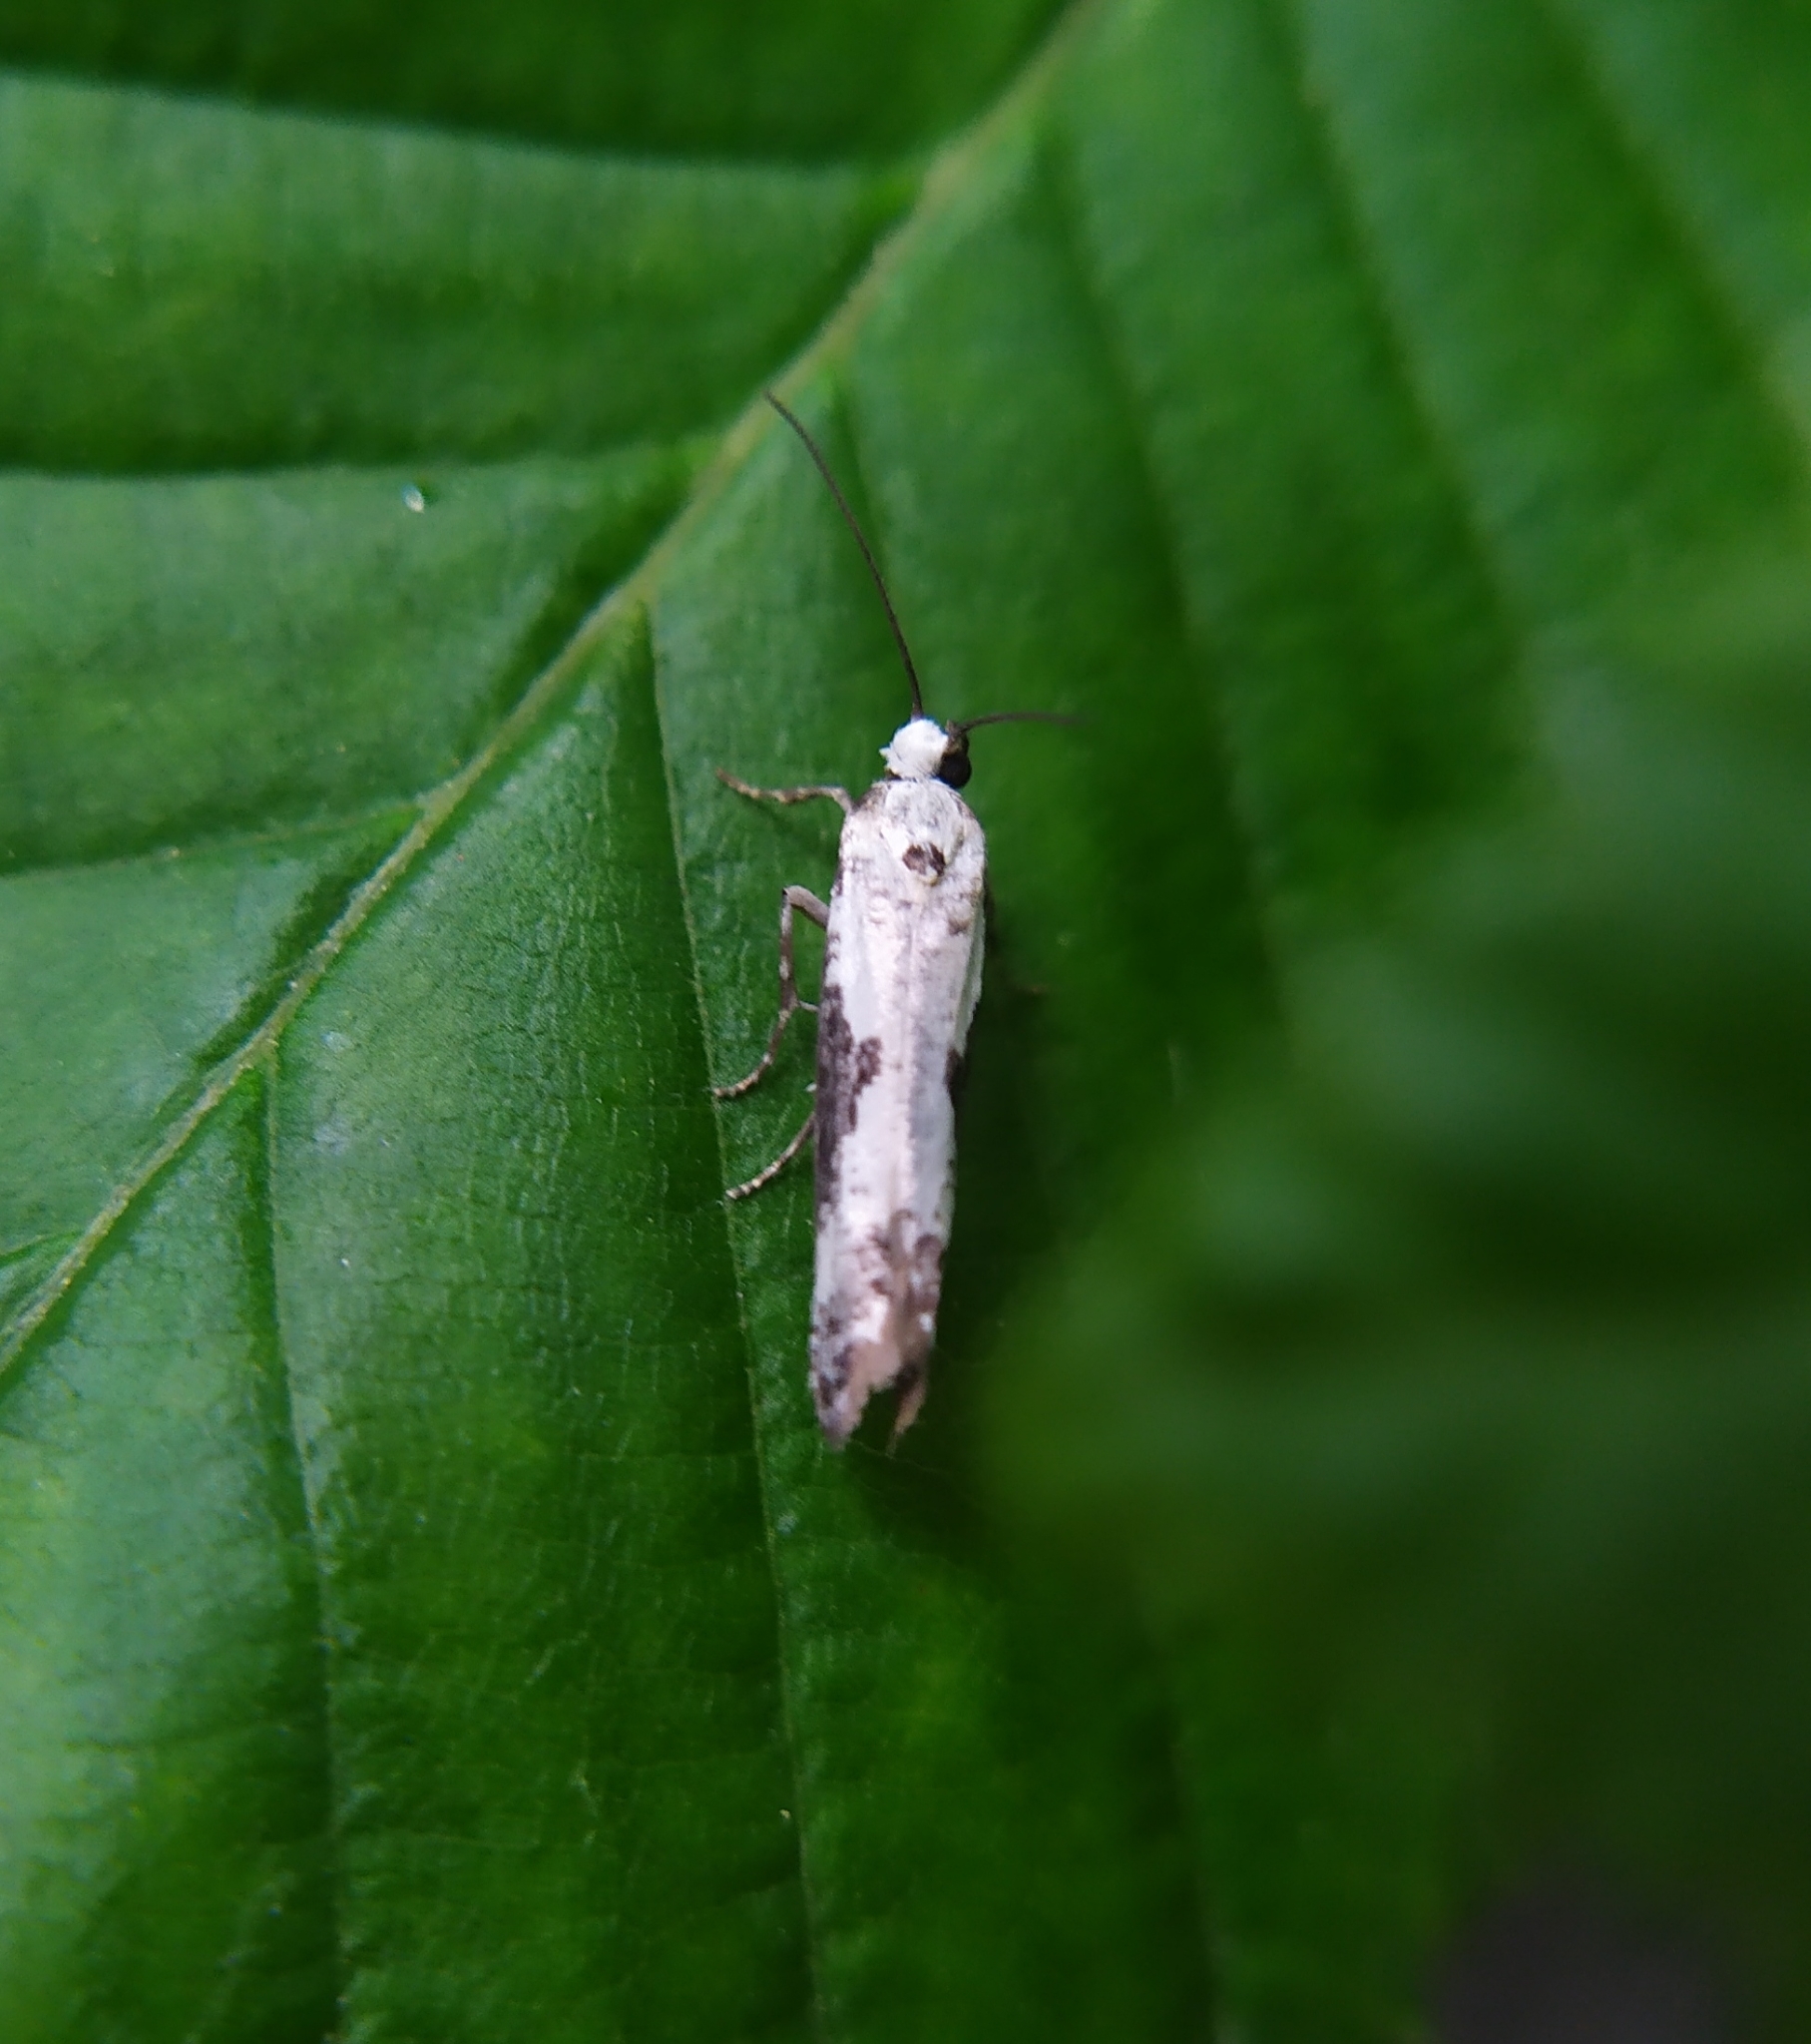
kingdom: Animalia
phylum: Arthropoda
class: Insecta
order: Lepidoptera
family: Praydidae
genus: Prays
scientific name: Prays fraxinella
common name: Ash bud moth
